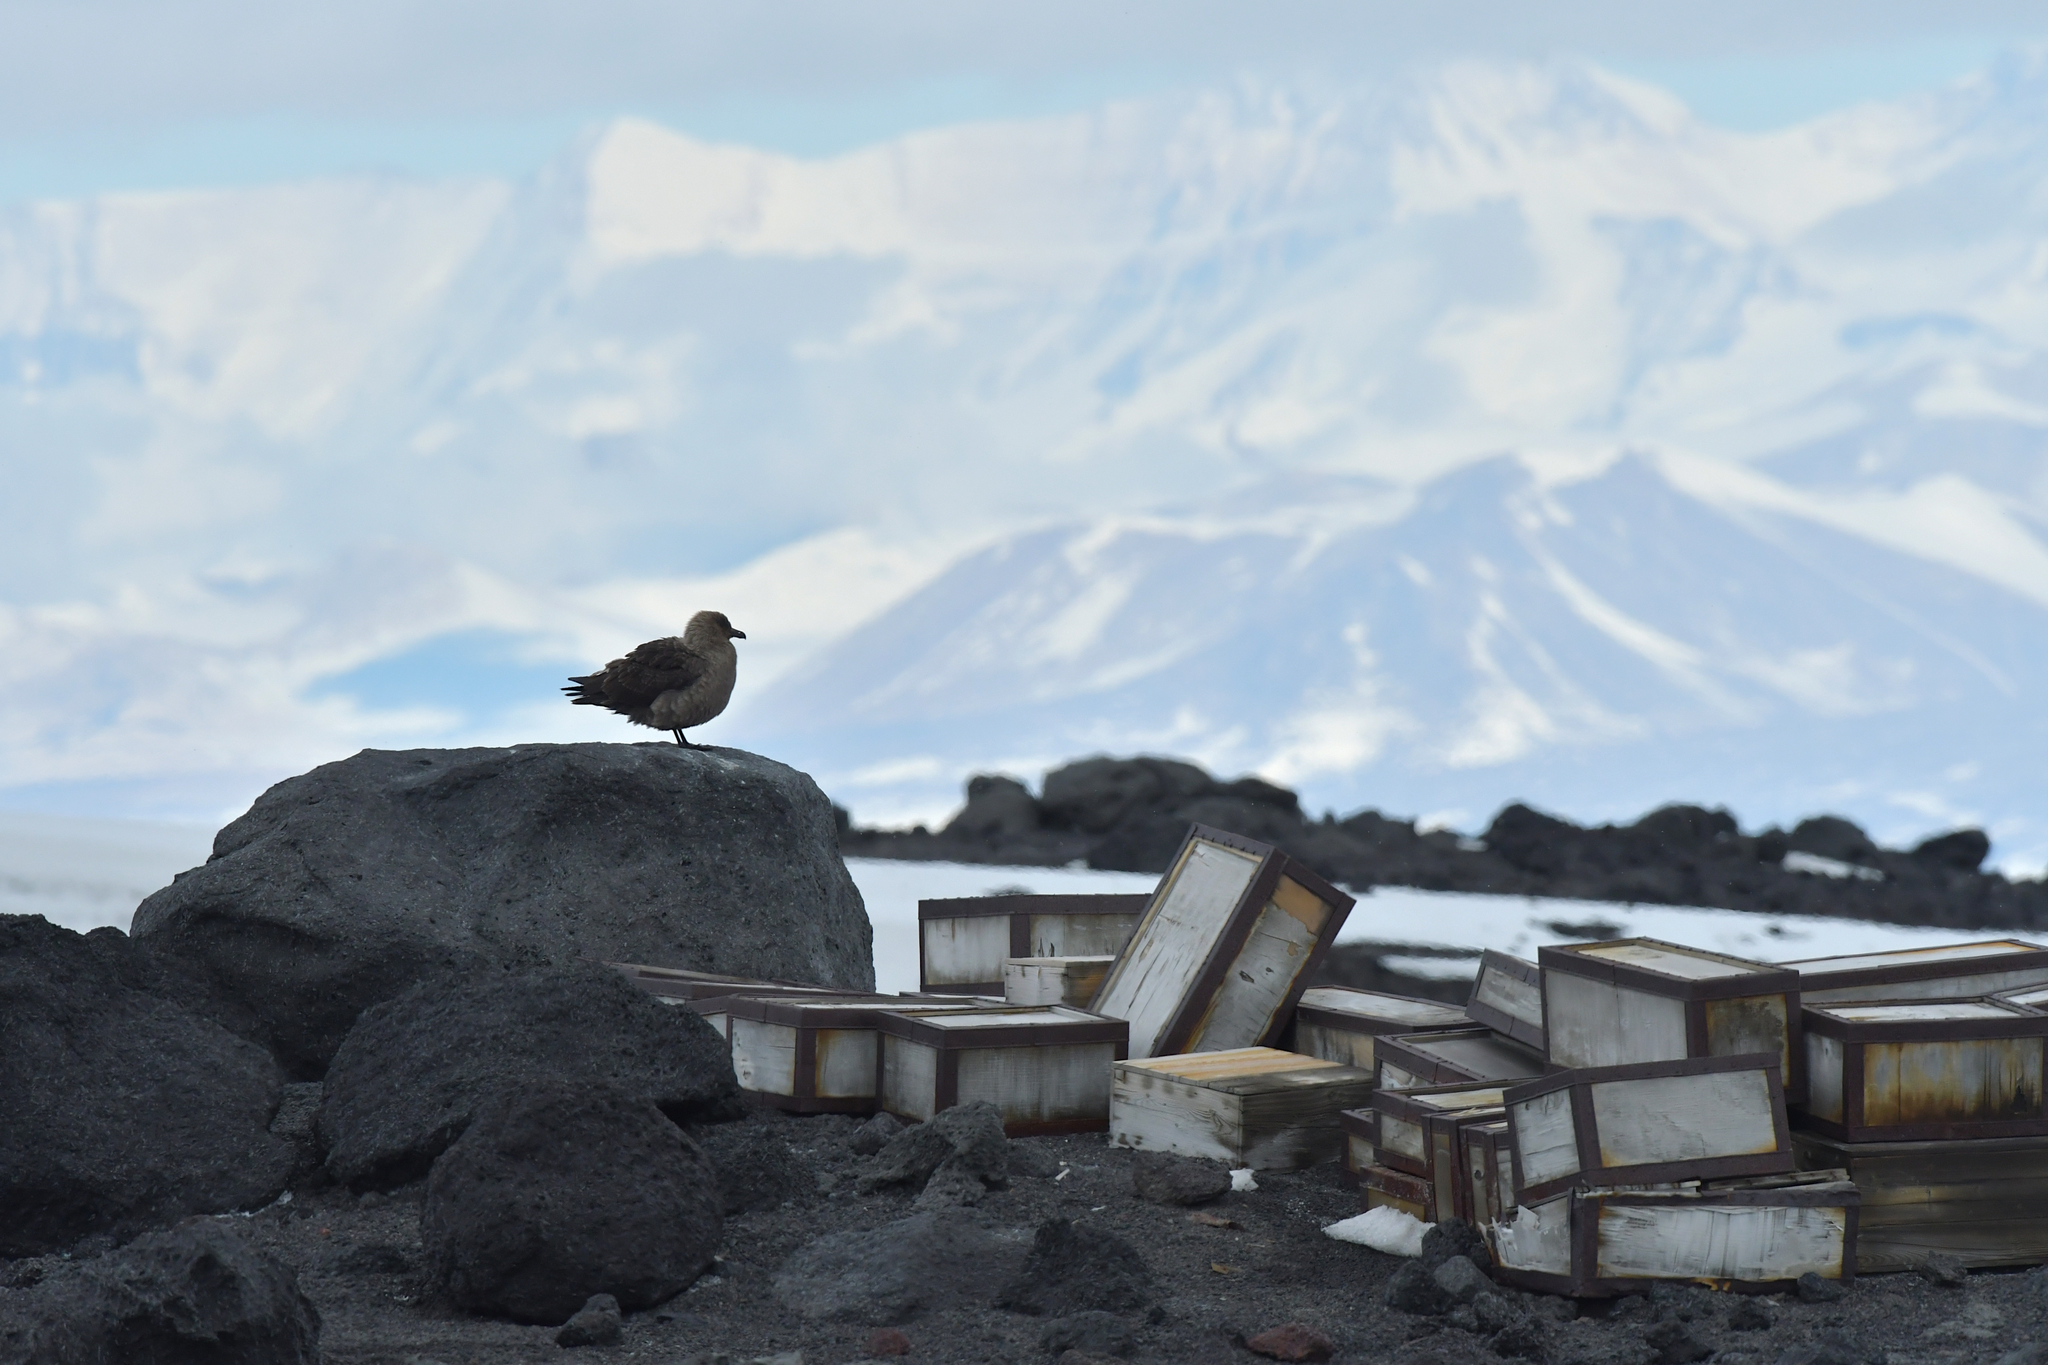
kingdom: Animalia
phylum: Chordata
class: Aves
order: Charadriiformes
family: Stercorariidae
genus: Stercorarius
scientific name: Stercorarius maccormicki
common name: South polar skua
